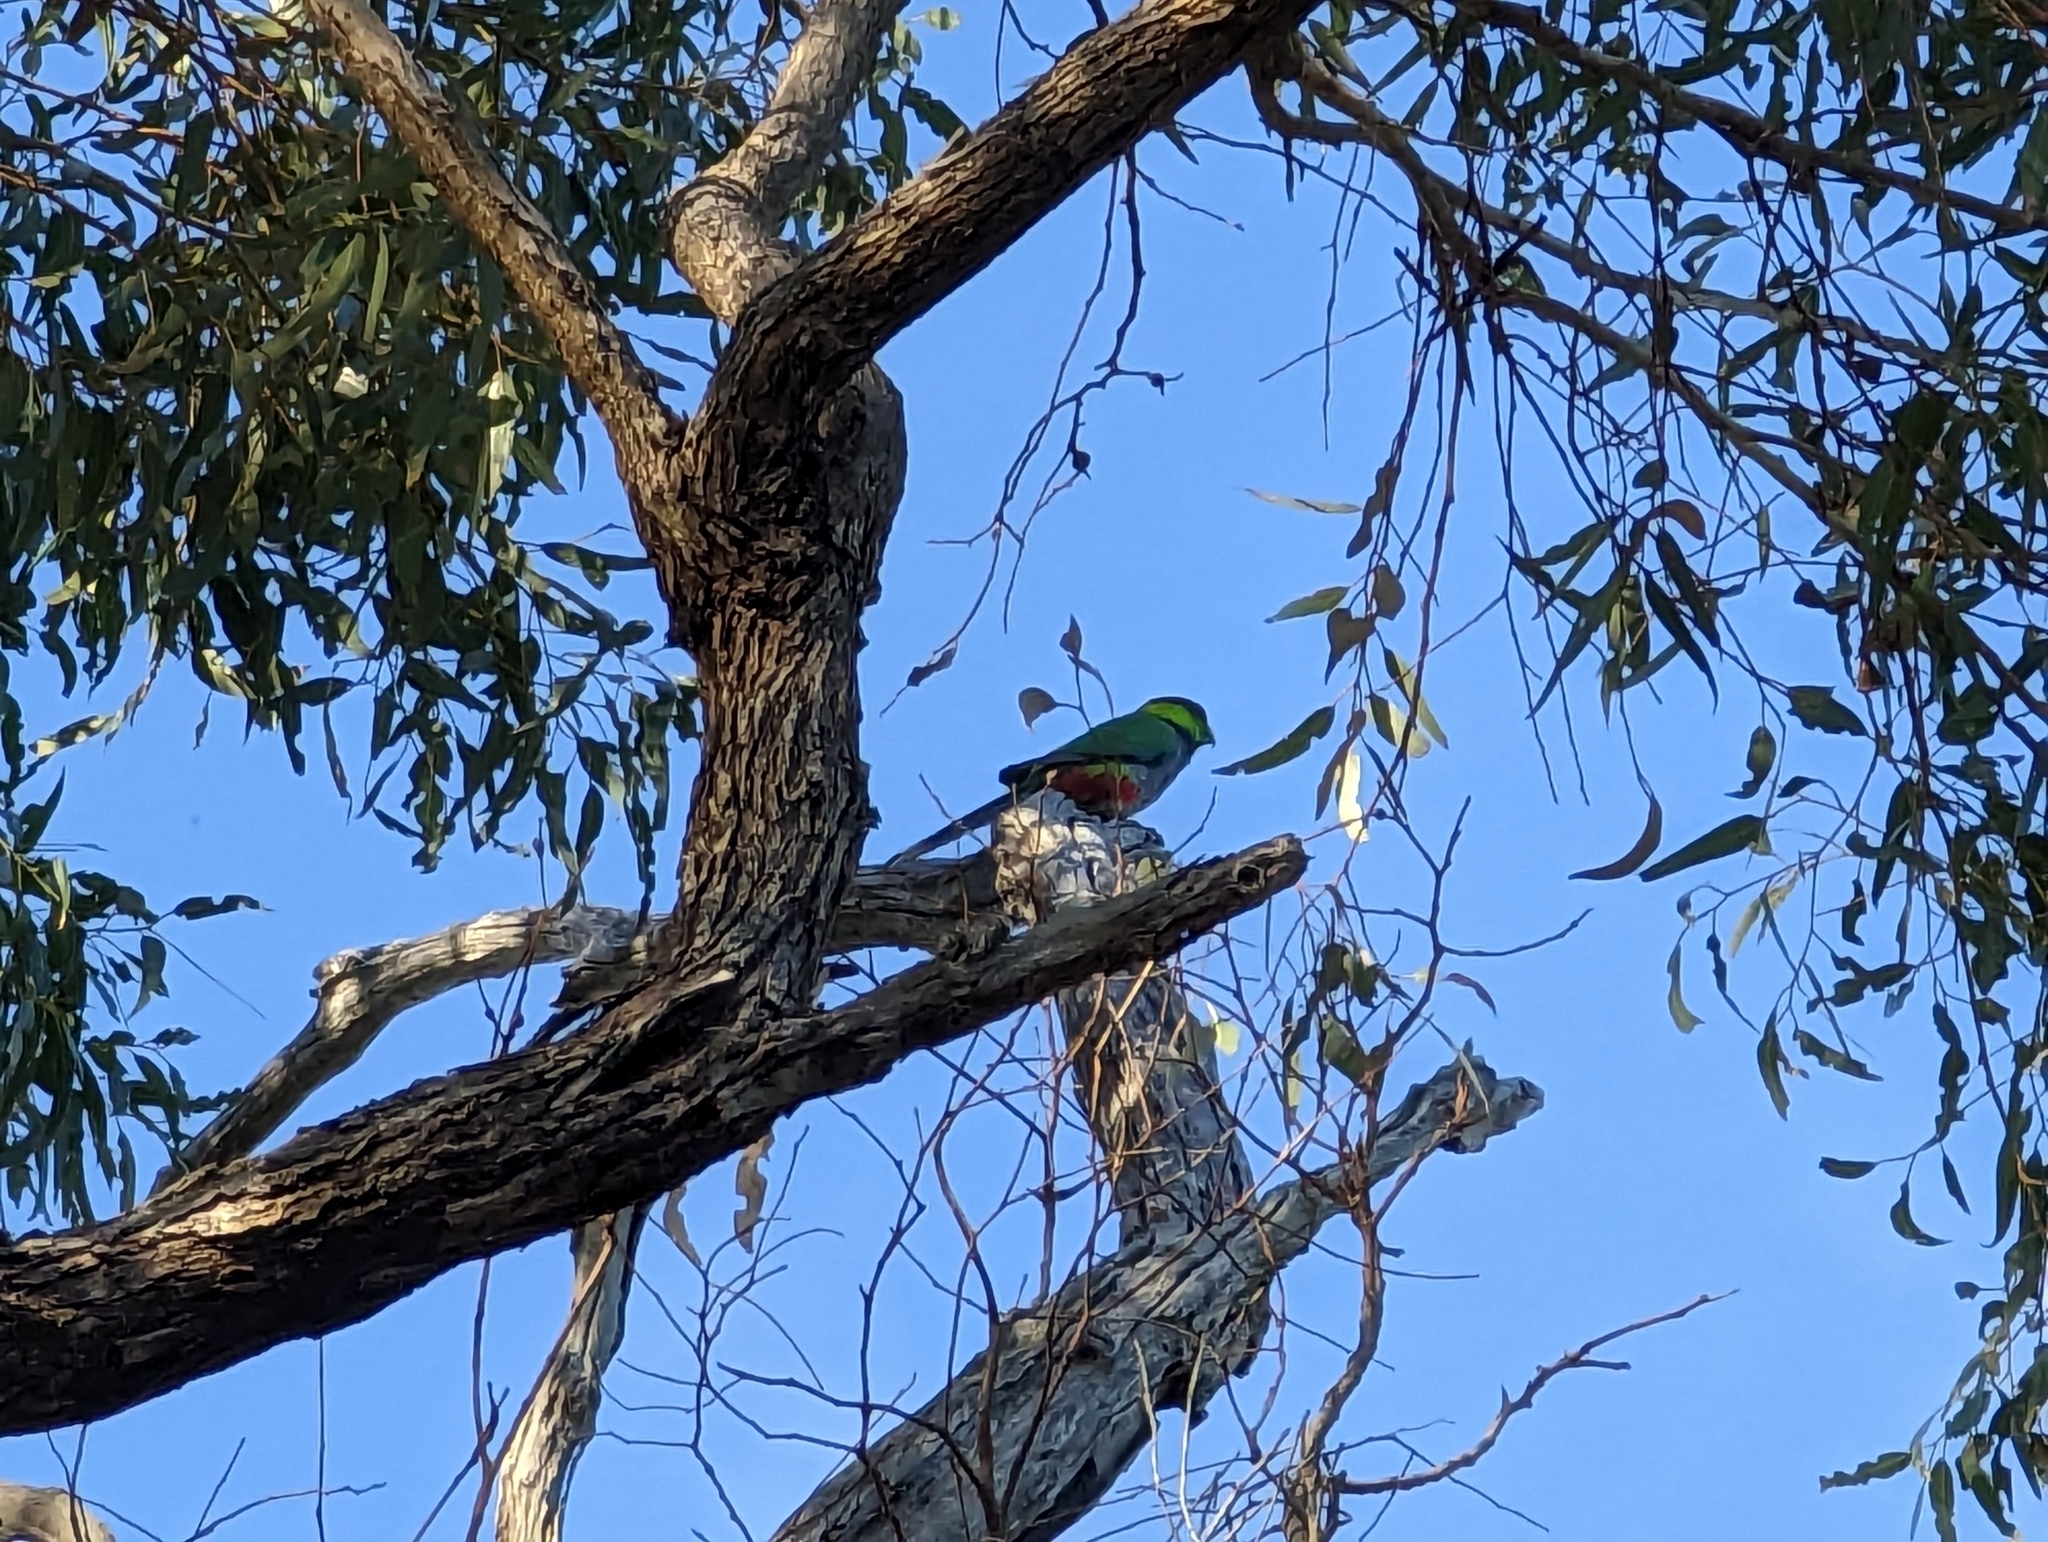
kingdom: Animalia
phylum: Chordata
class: Aves
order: Psittaciformes
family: Psittacidae
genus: Purpureicephalus
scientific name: Purpureicephalus spurius
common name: Red-capped parrot
